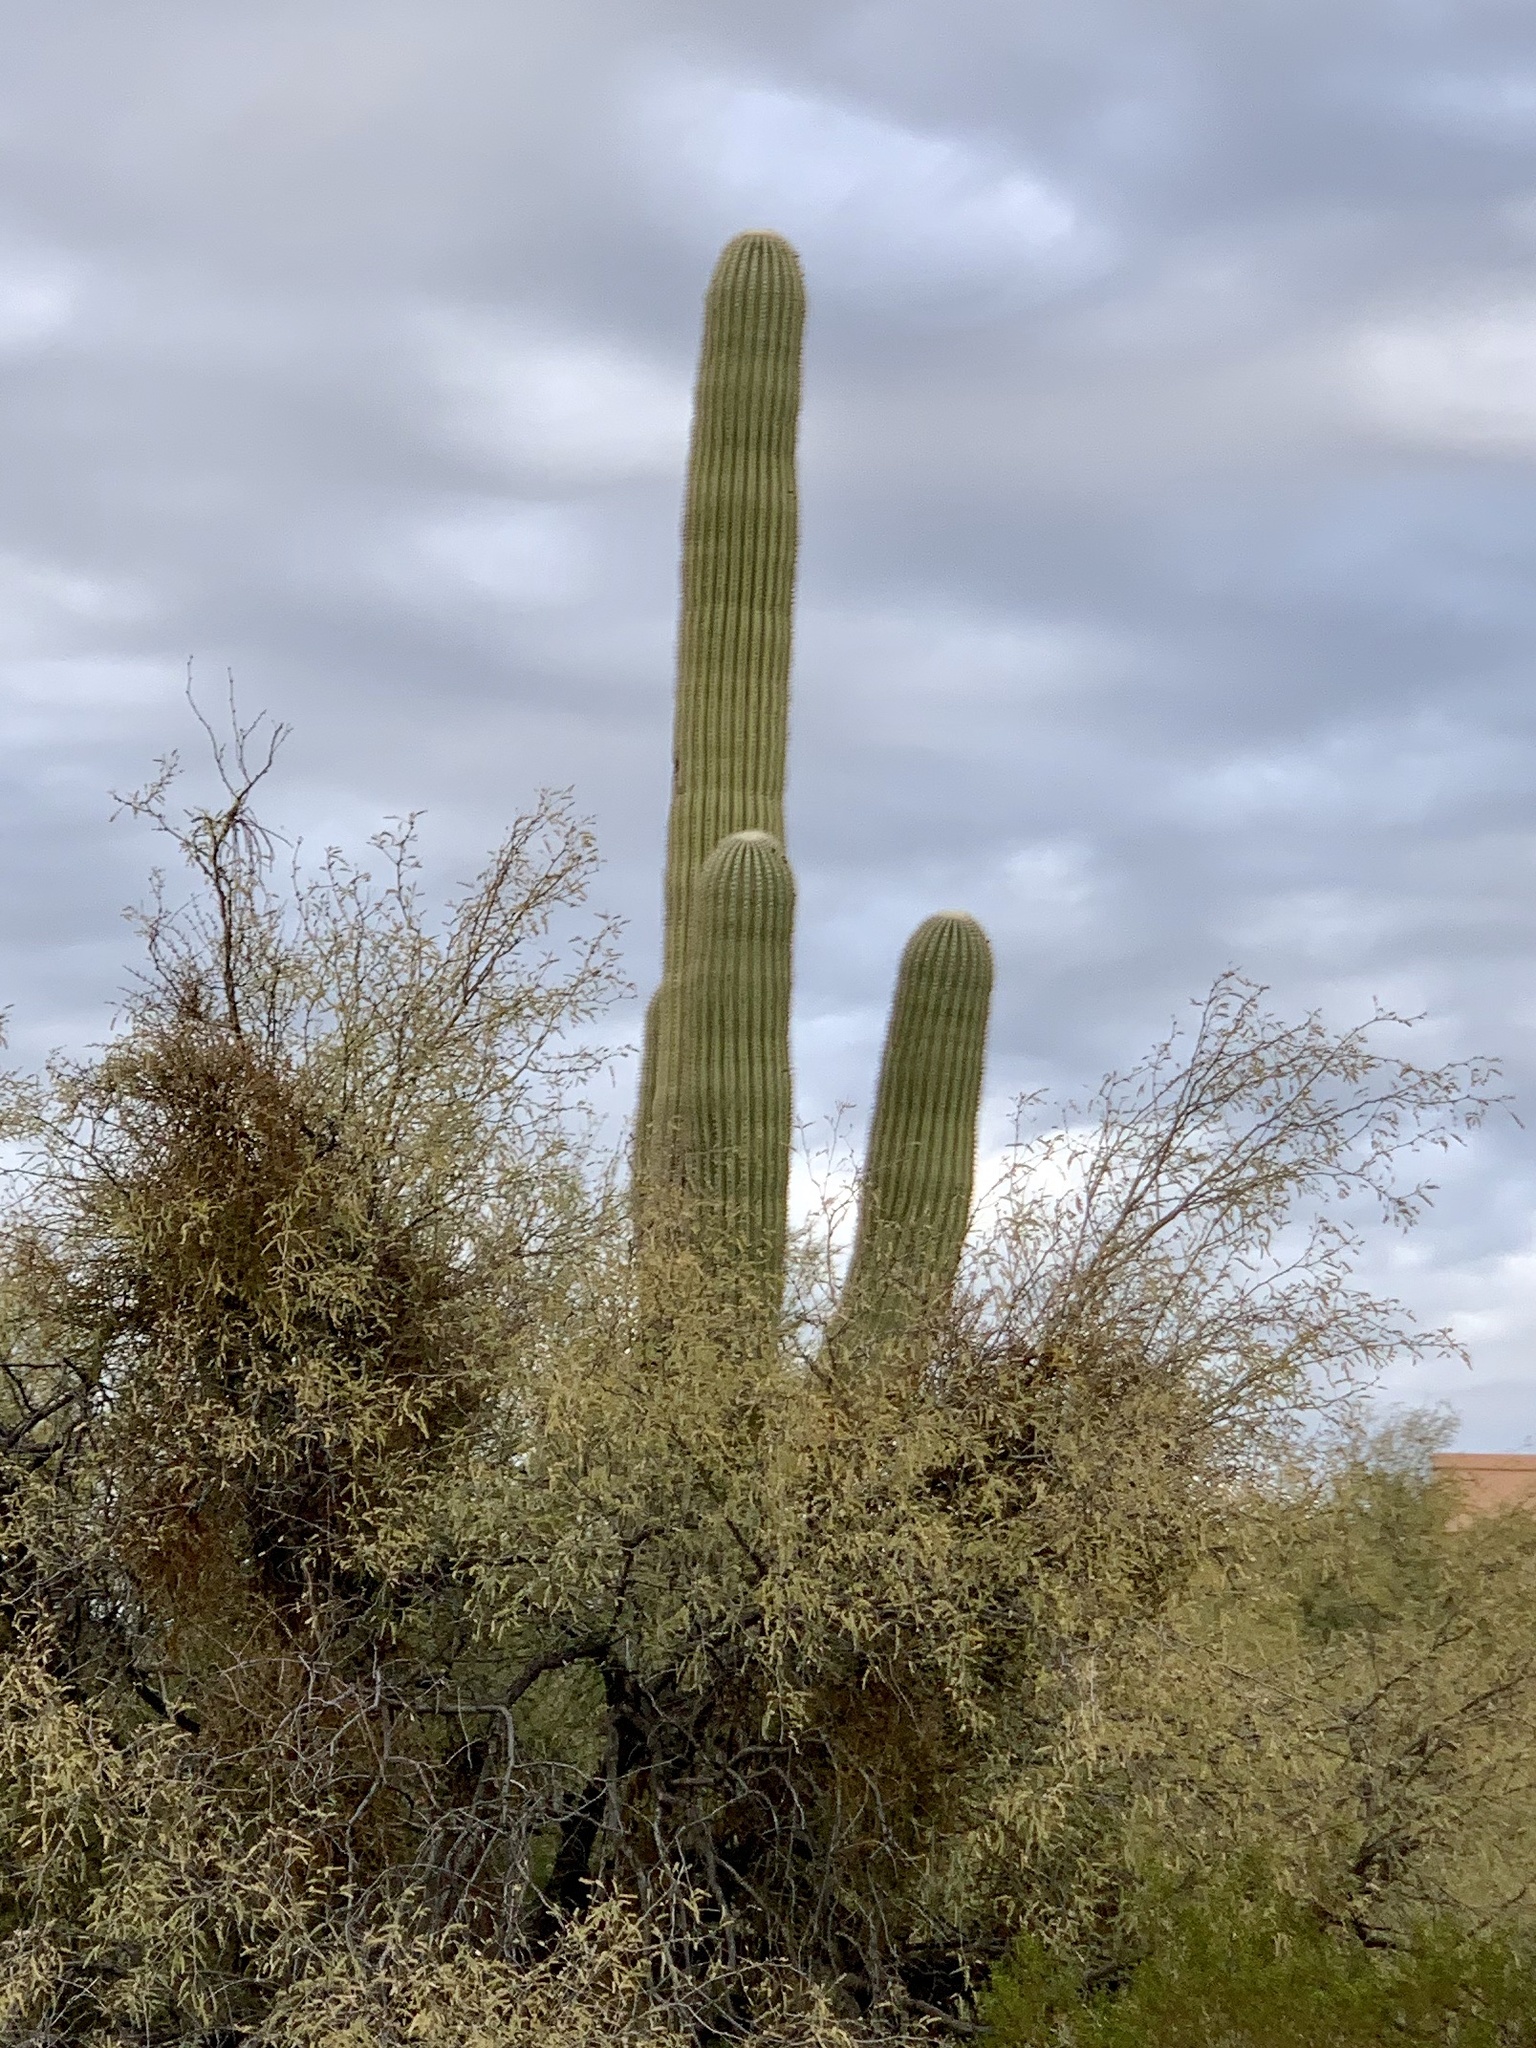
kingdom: Plantae
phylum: Tracheophyta
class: Magnoliopsida
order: Caryophyllales
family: Cactaceae
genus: Carnegiea
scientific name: Carnegiea gigantea
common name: Saguaro
